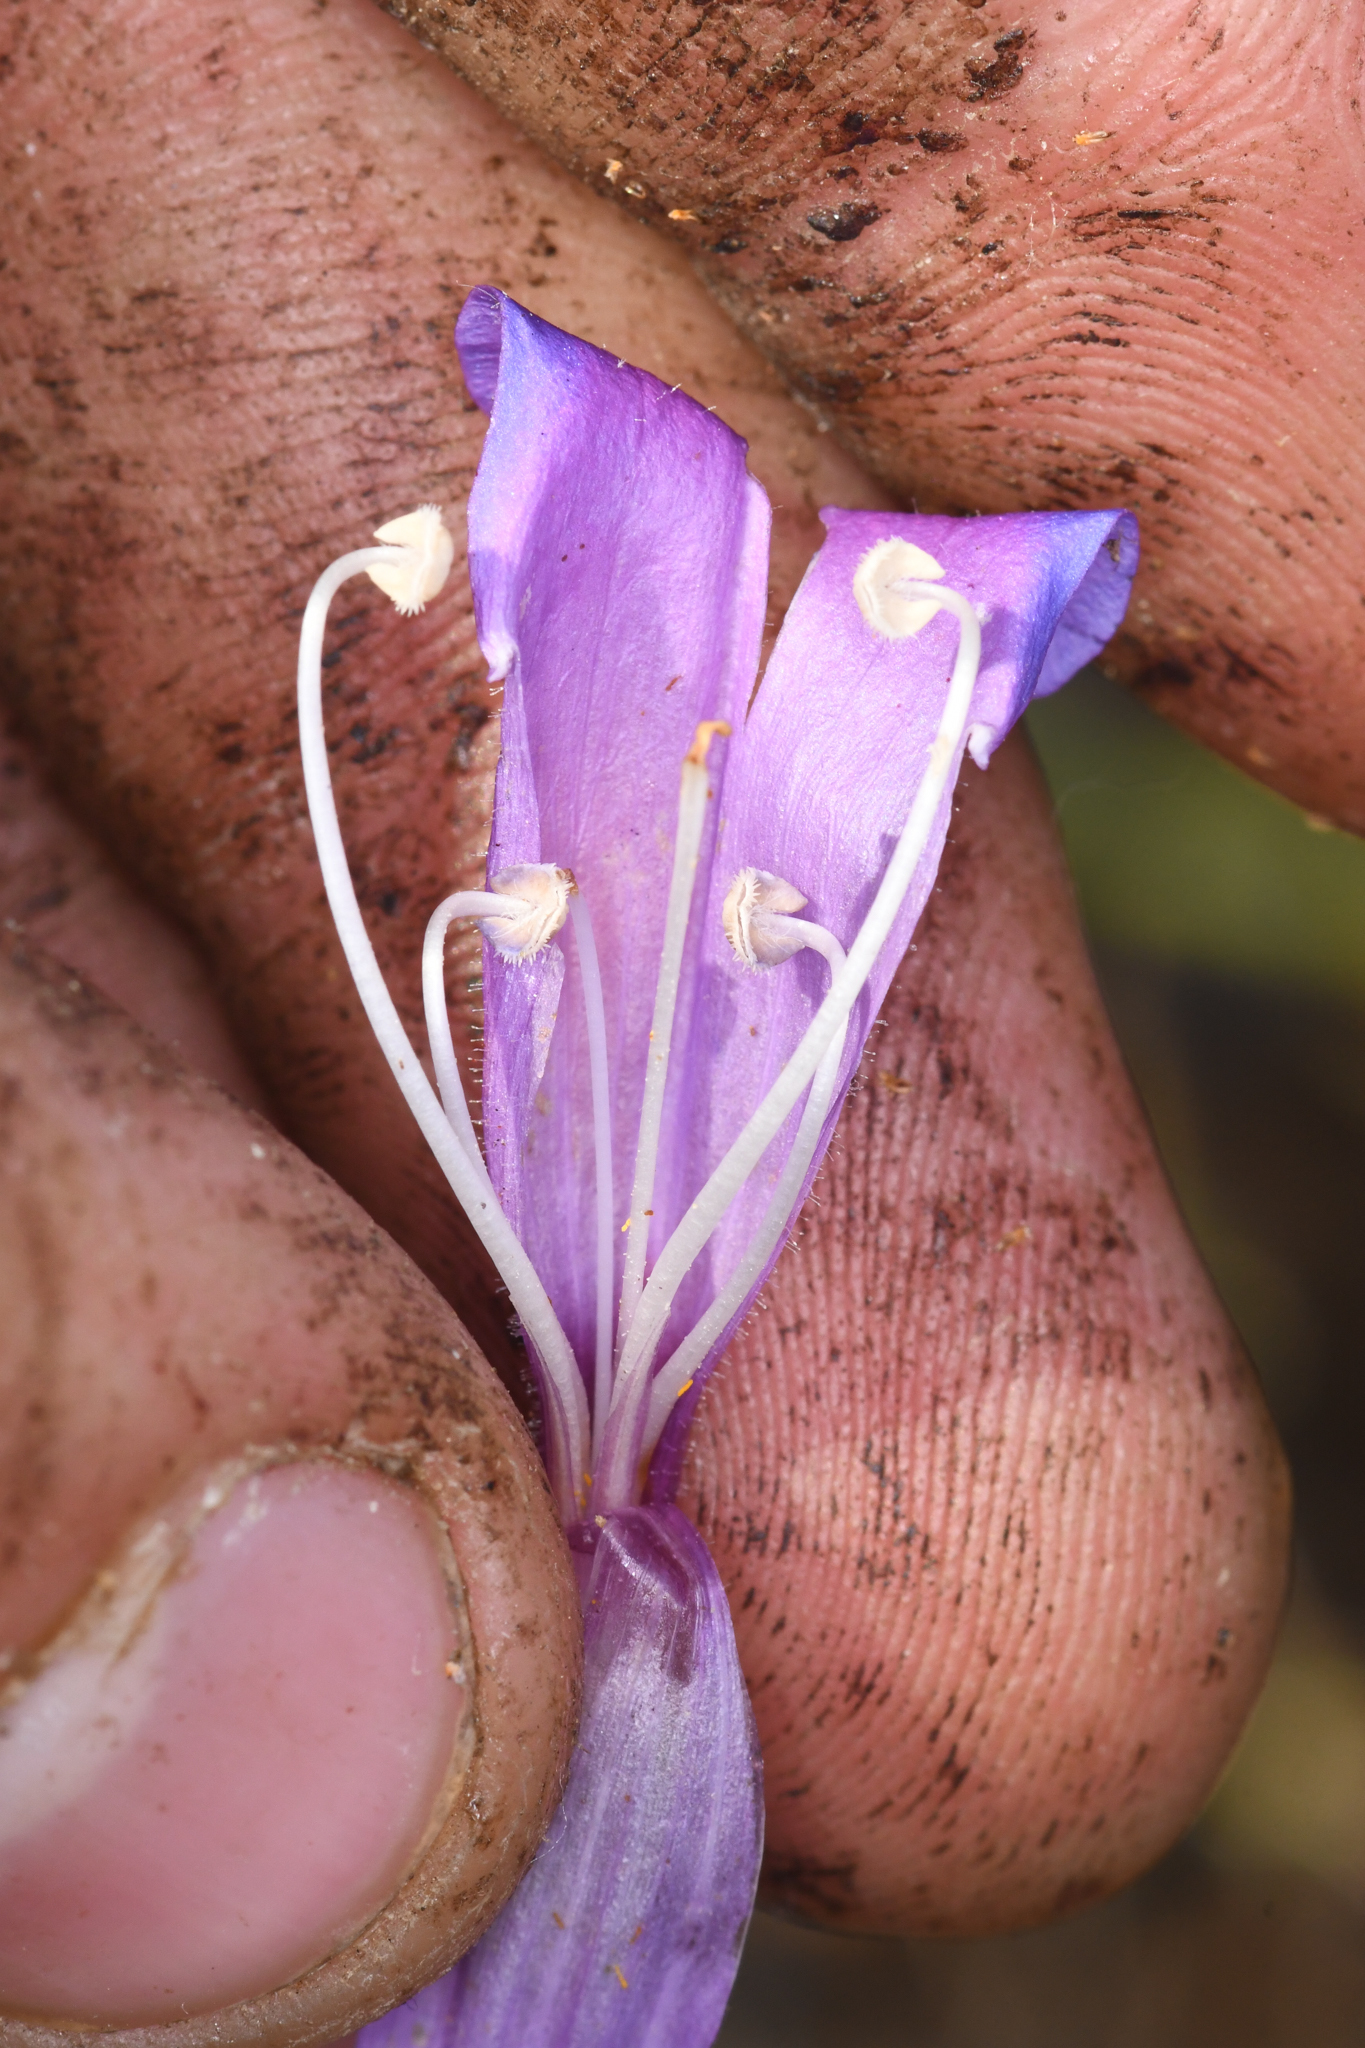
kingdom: Plantae
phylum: Tracheophyta
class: Magnoliopsida
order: Lamiales
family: Plantaginaceae
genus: Penstemon
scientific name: Penstemon laetus
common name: Gay penstemon
